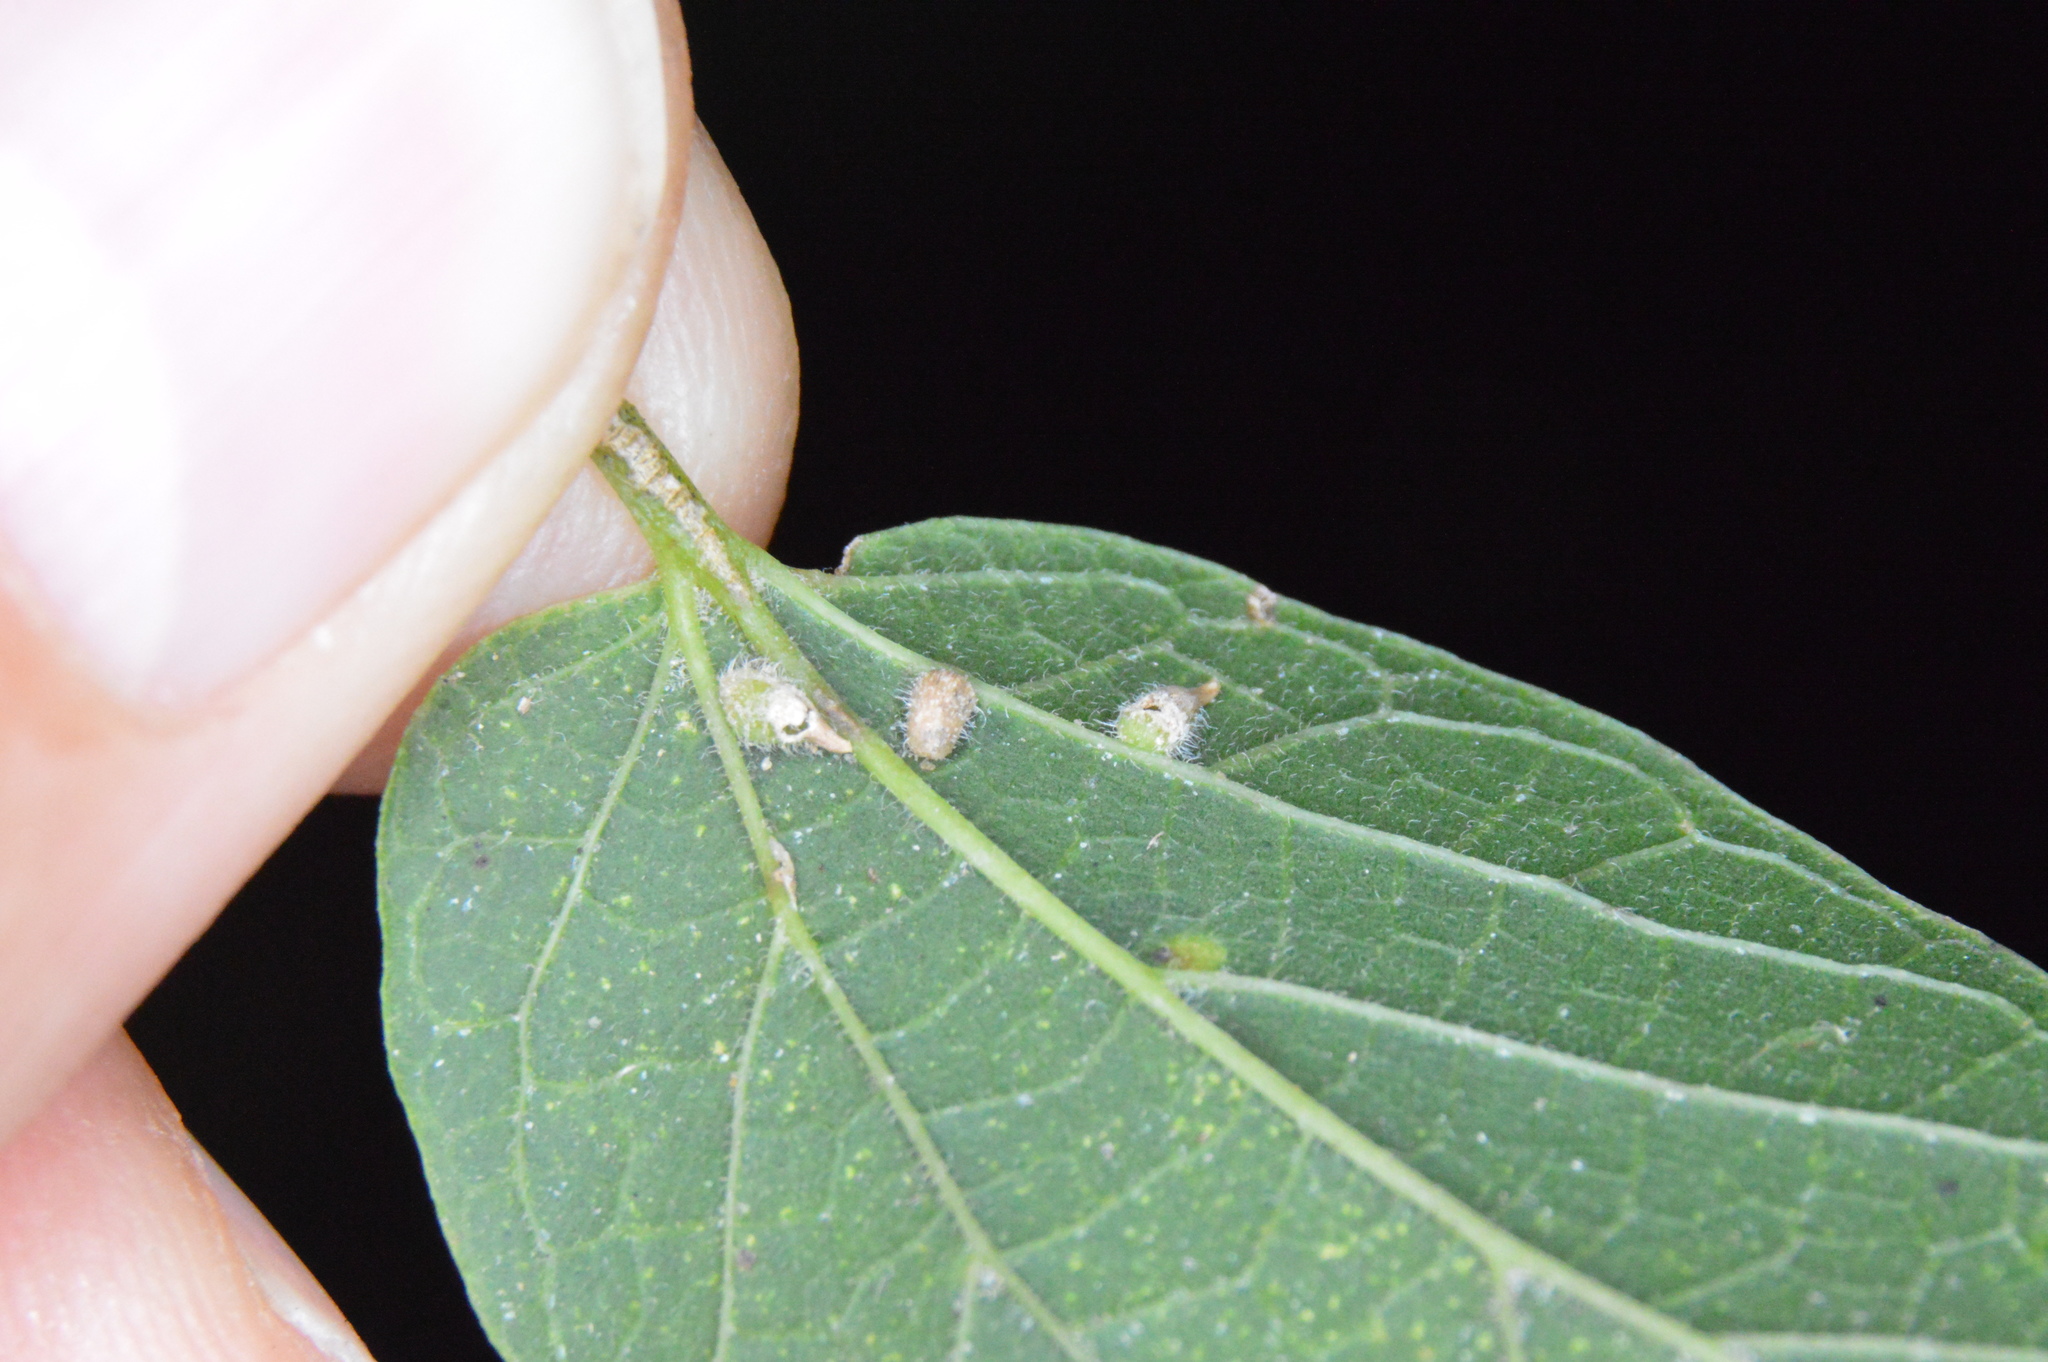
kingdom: Animalia
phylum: Arthropoda
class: Insecta
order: Diptera
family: Cecidomyiidae
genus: Celticecis
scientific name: Celticecis supina
